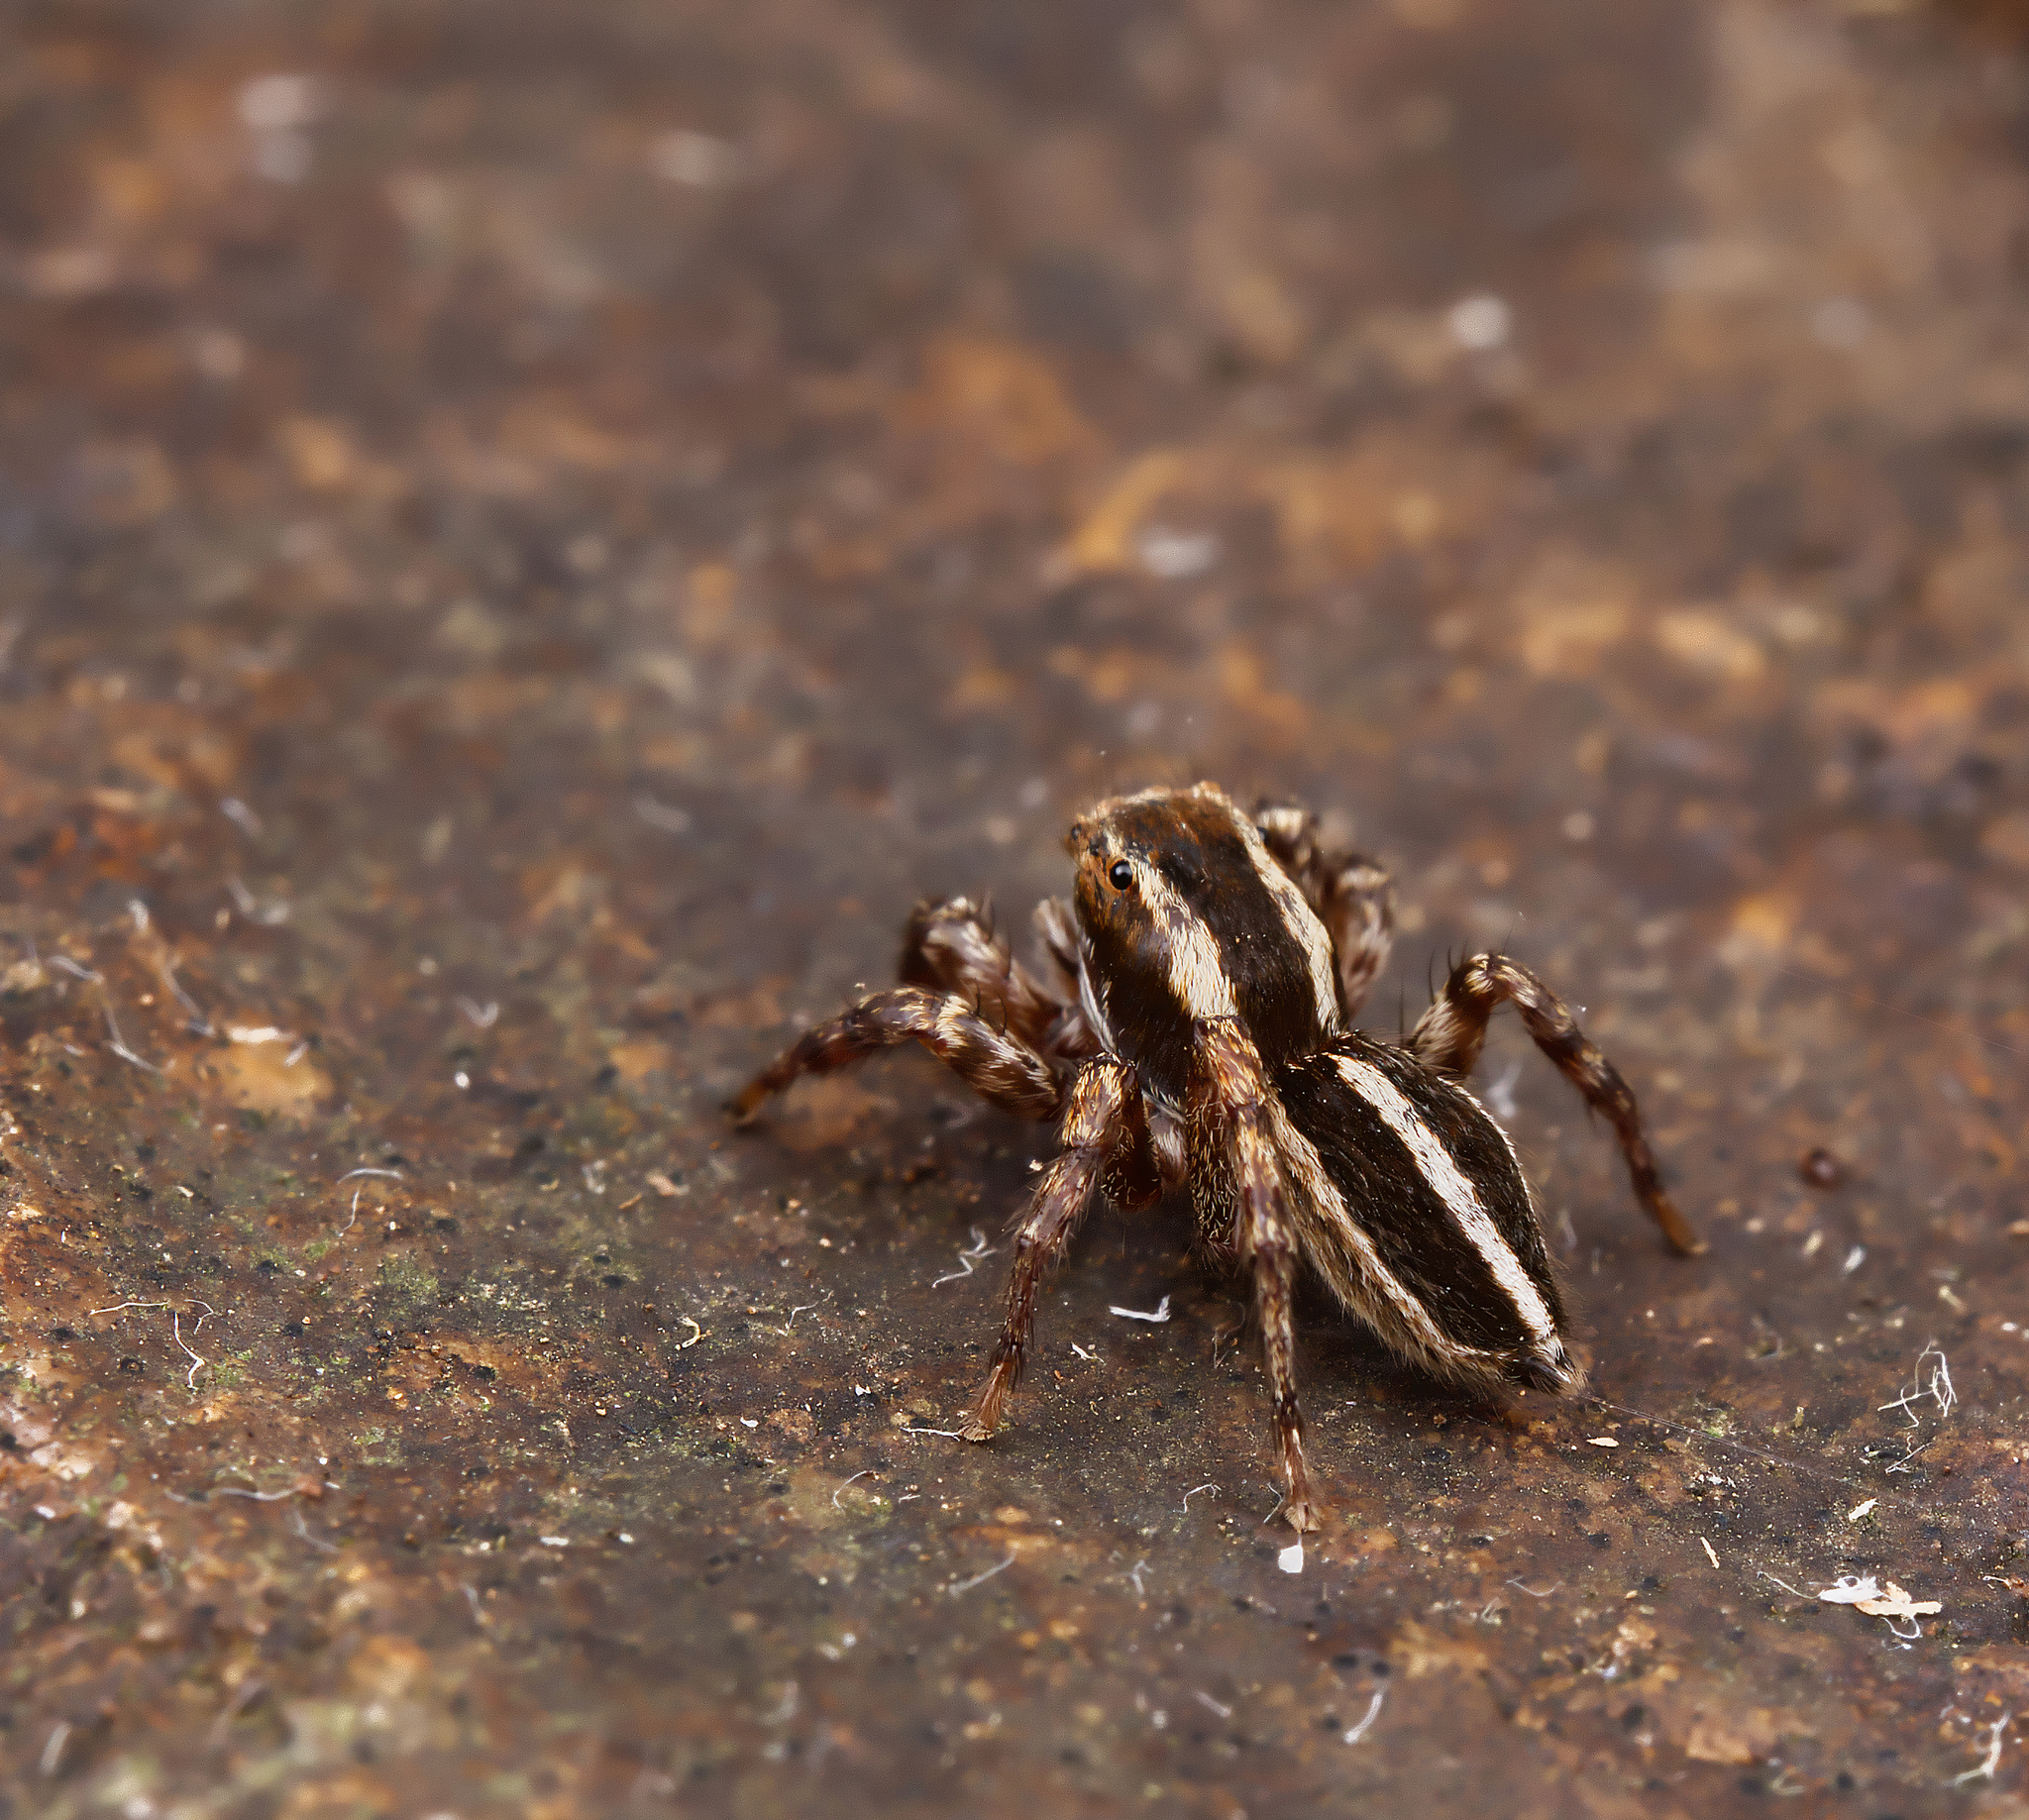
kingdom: Animalia
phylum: Arthropoda
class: Arachnida
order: Araneae
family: Salticidae
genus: Phlegra
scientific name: Phlegra hentzi
